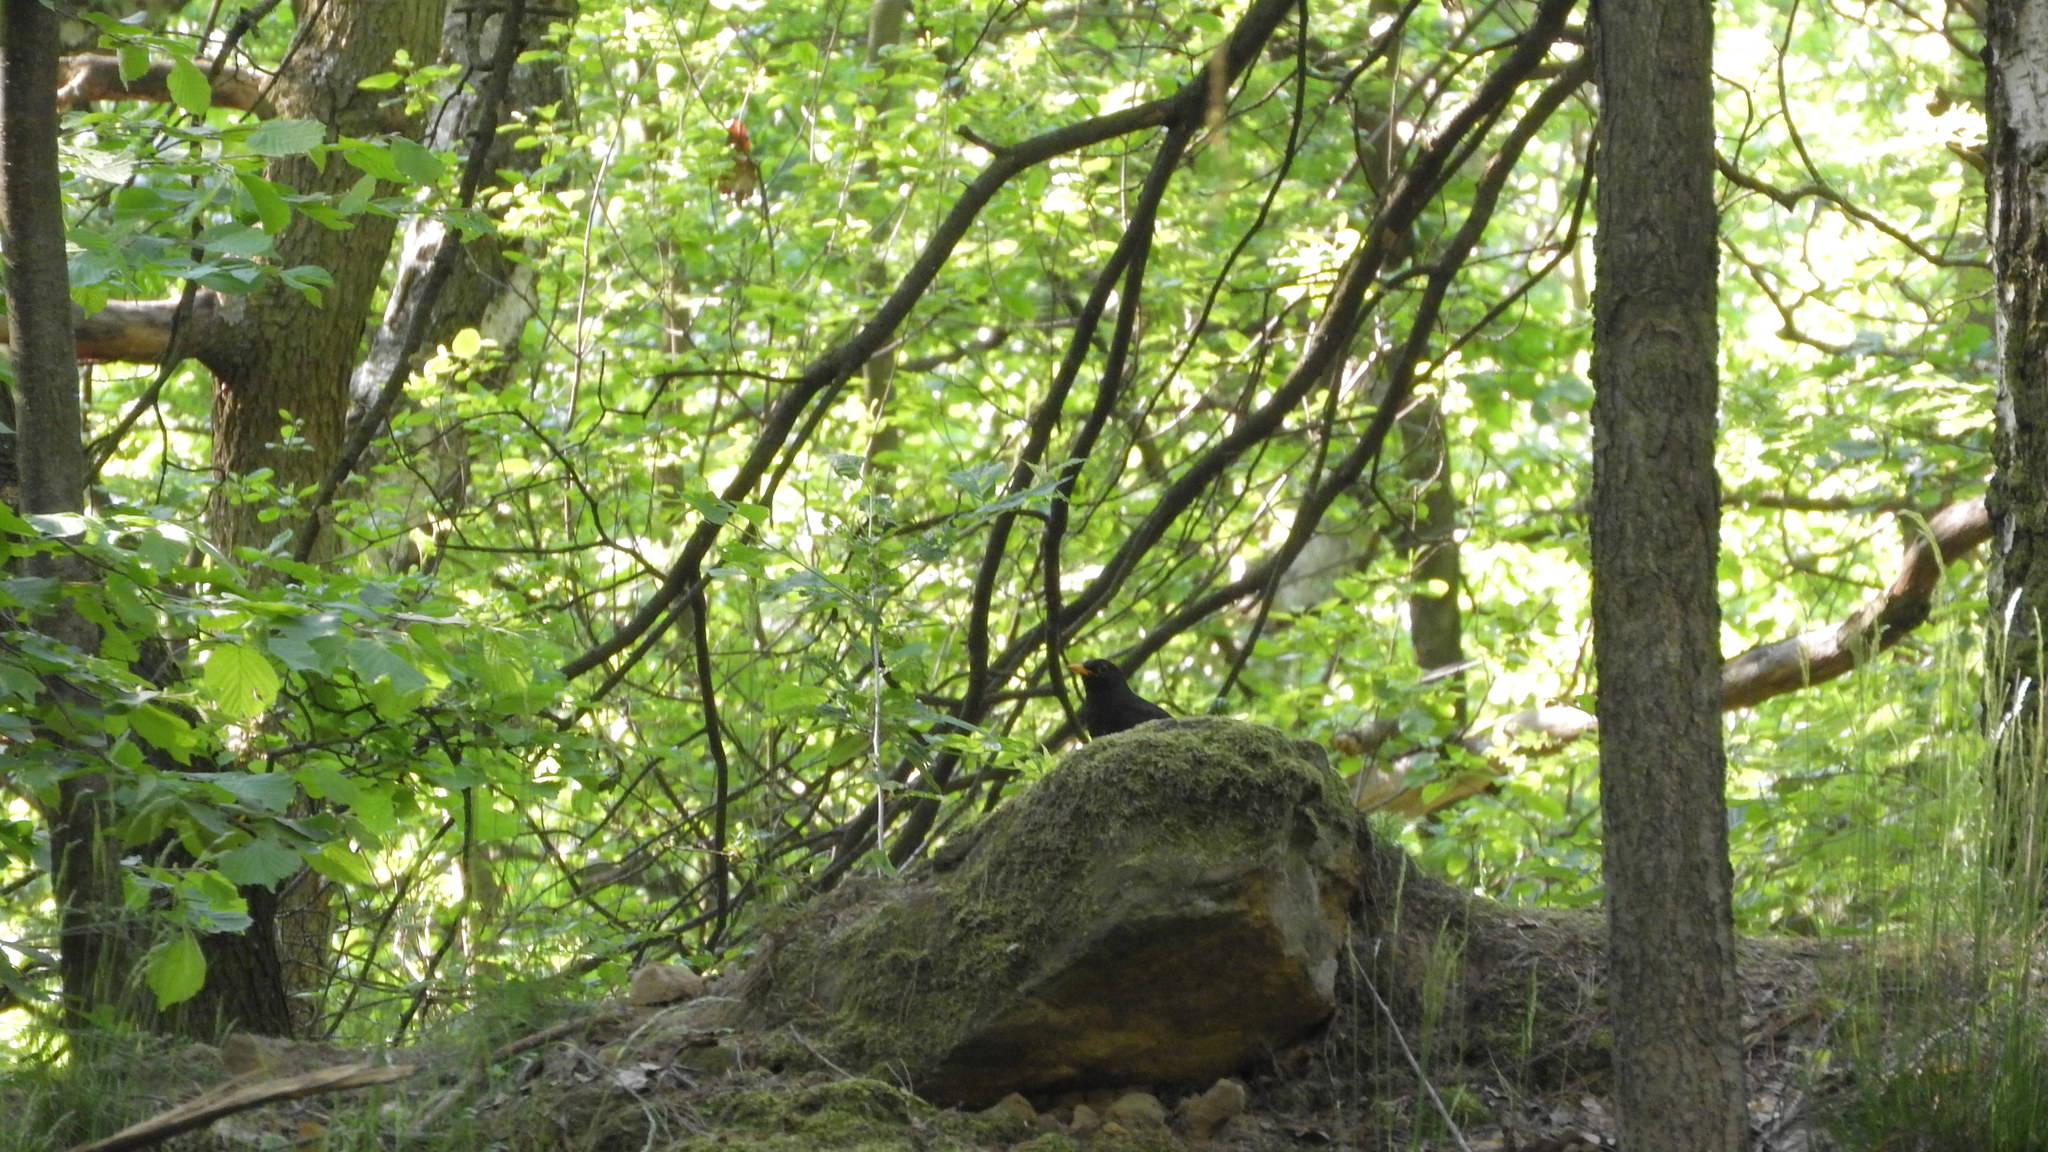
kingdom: Animalia
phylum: Chordata
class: Aves
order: Passeriformes
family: Turdidae
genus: Turdus
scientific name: Turdus merula
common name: Common blackbird
